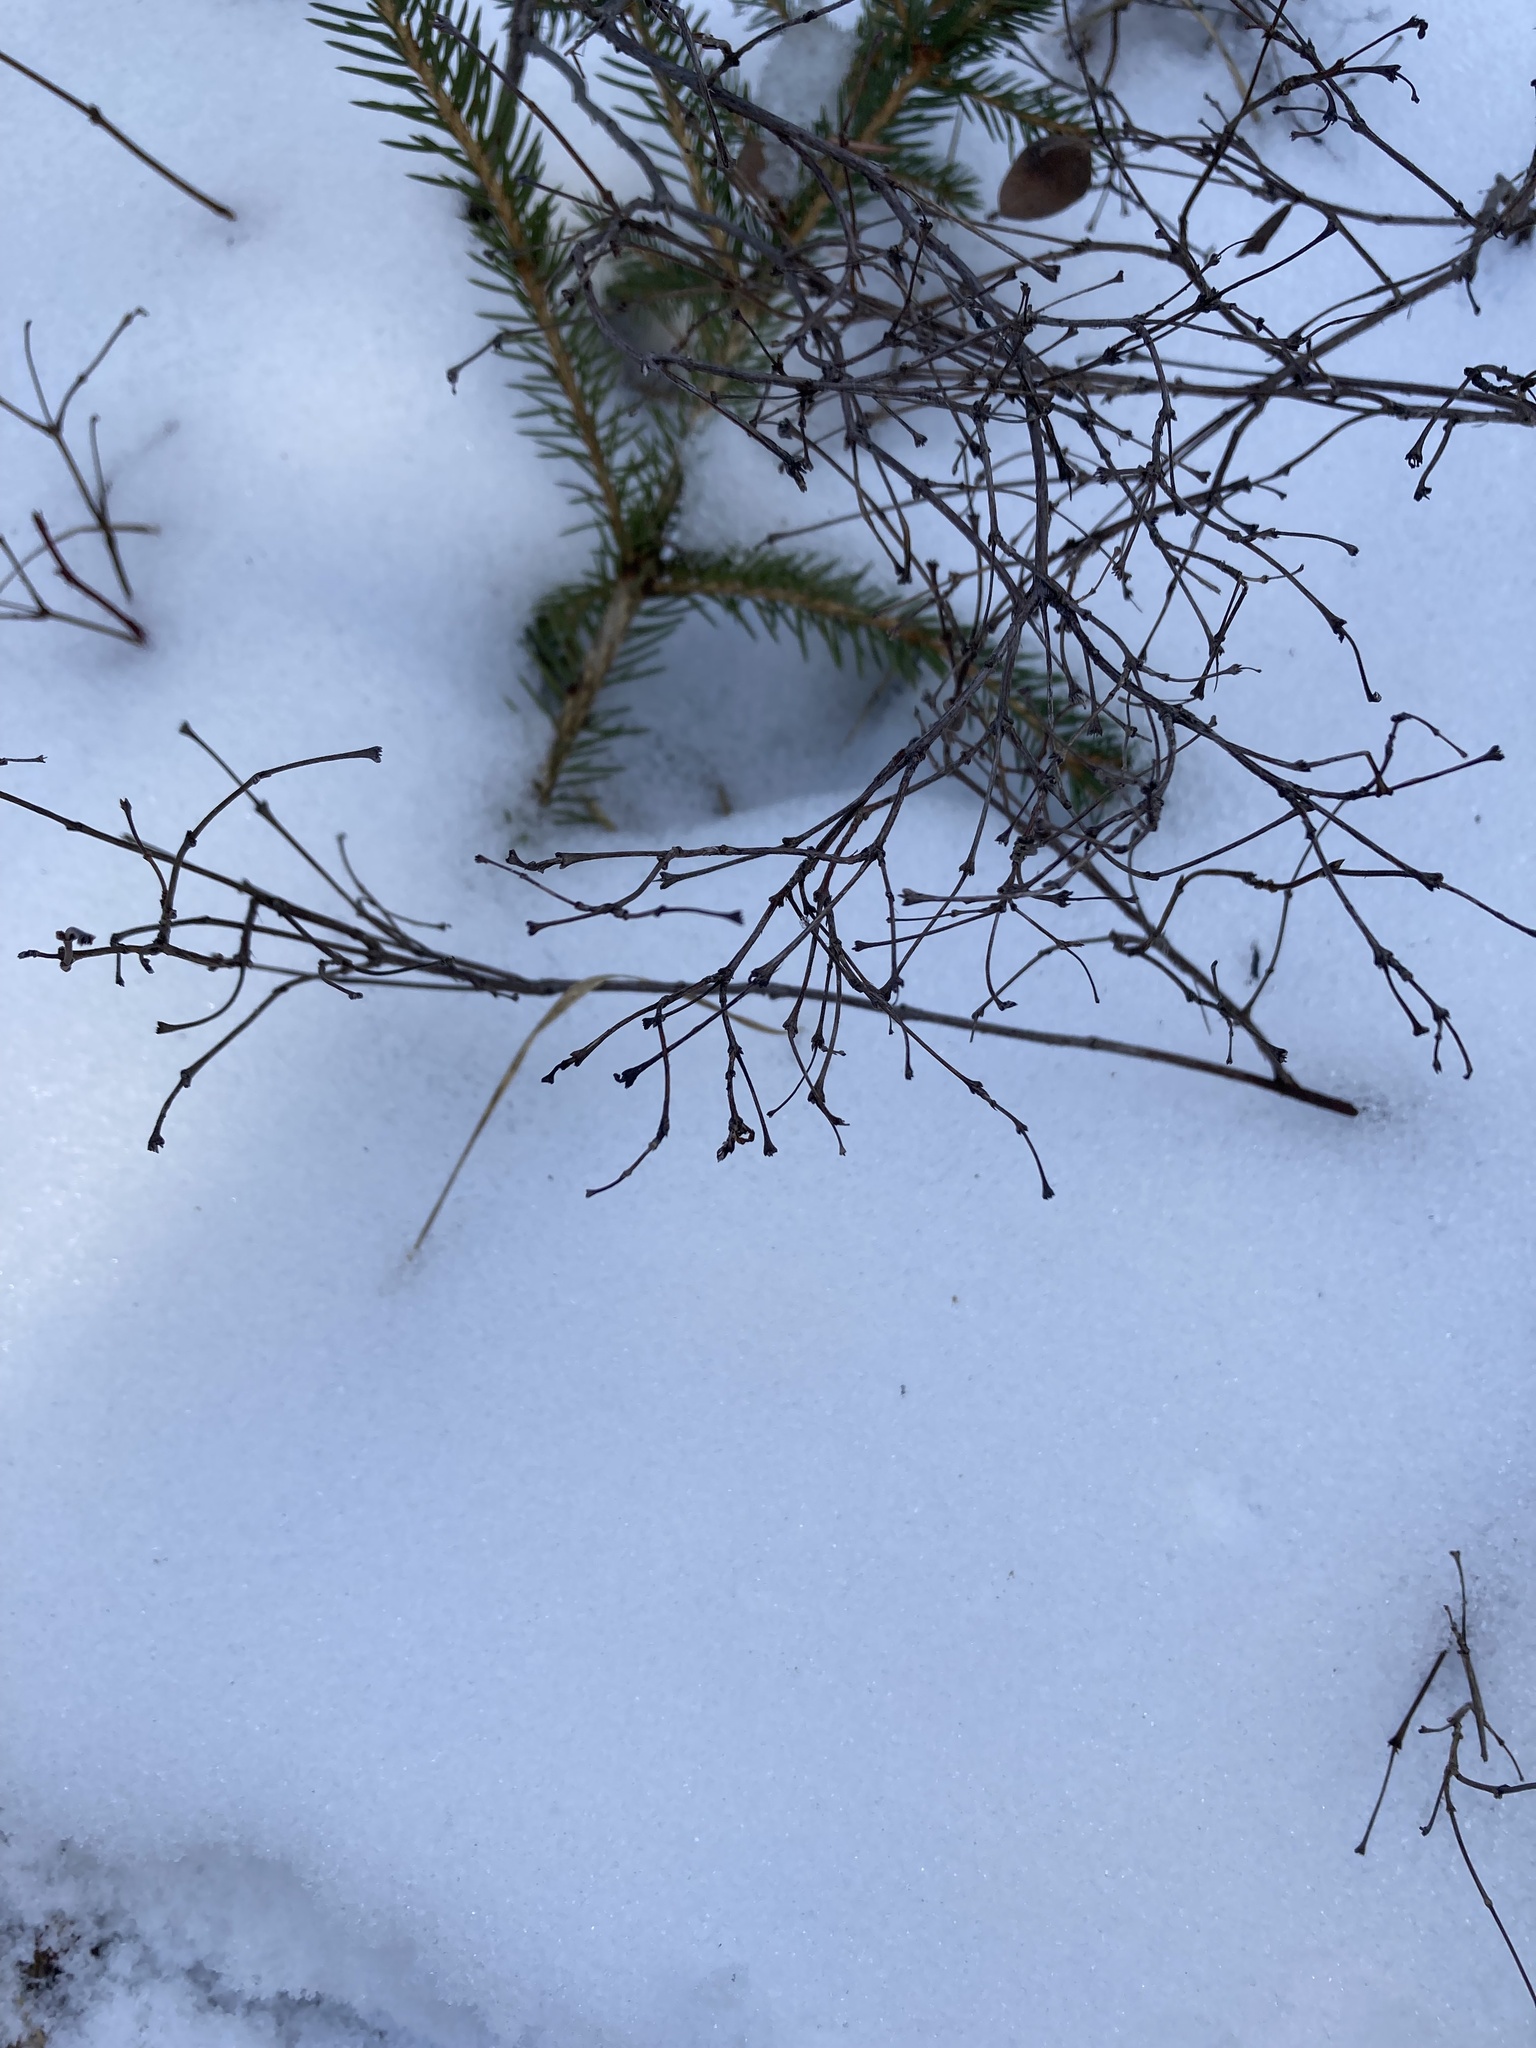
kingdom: Plantae
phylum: Tracheophyta
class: Magnoliopsida
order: Dipsacales
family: Caprifoliaceae
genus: Symphoricarpos
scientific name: Symphoricarpos occidentalis
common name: Wolfberry
